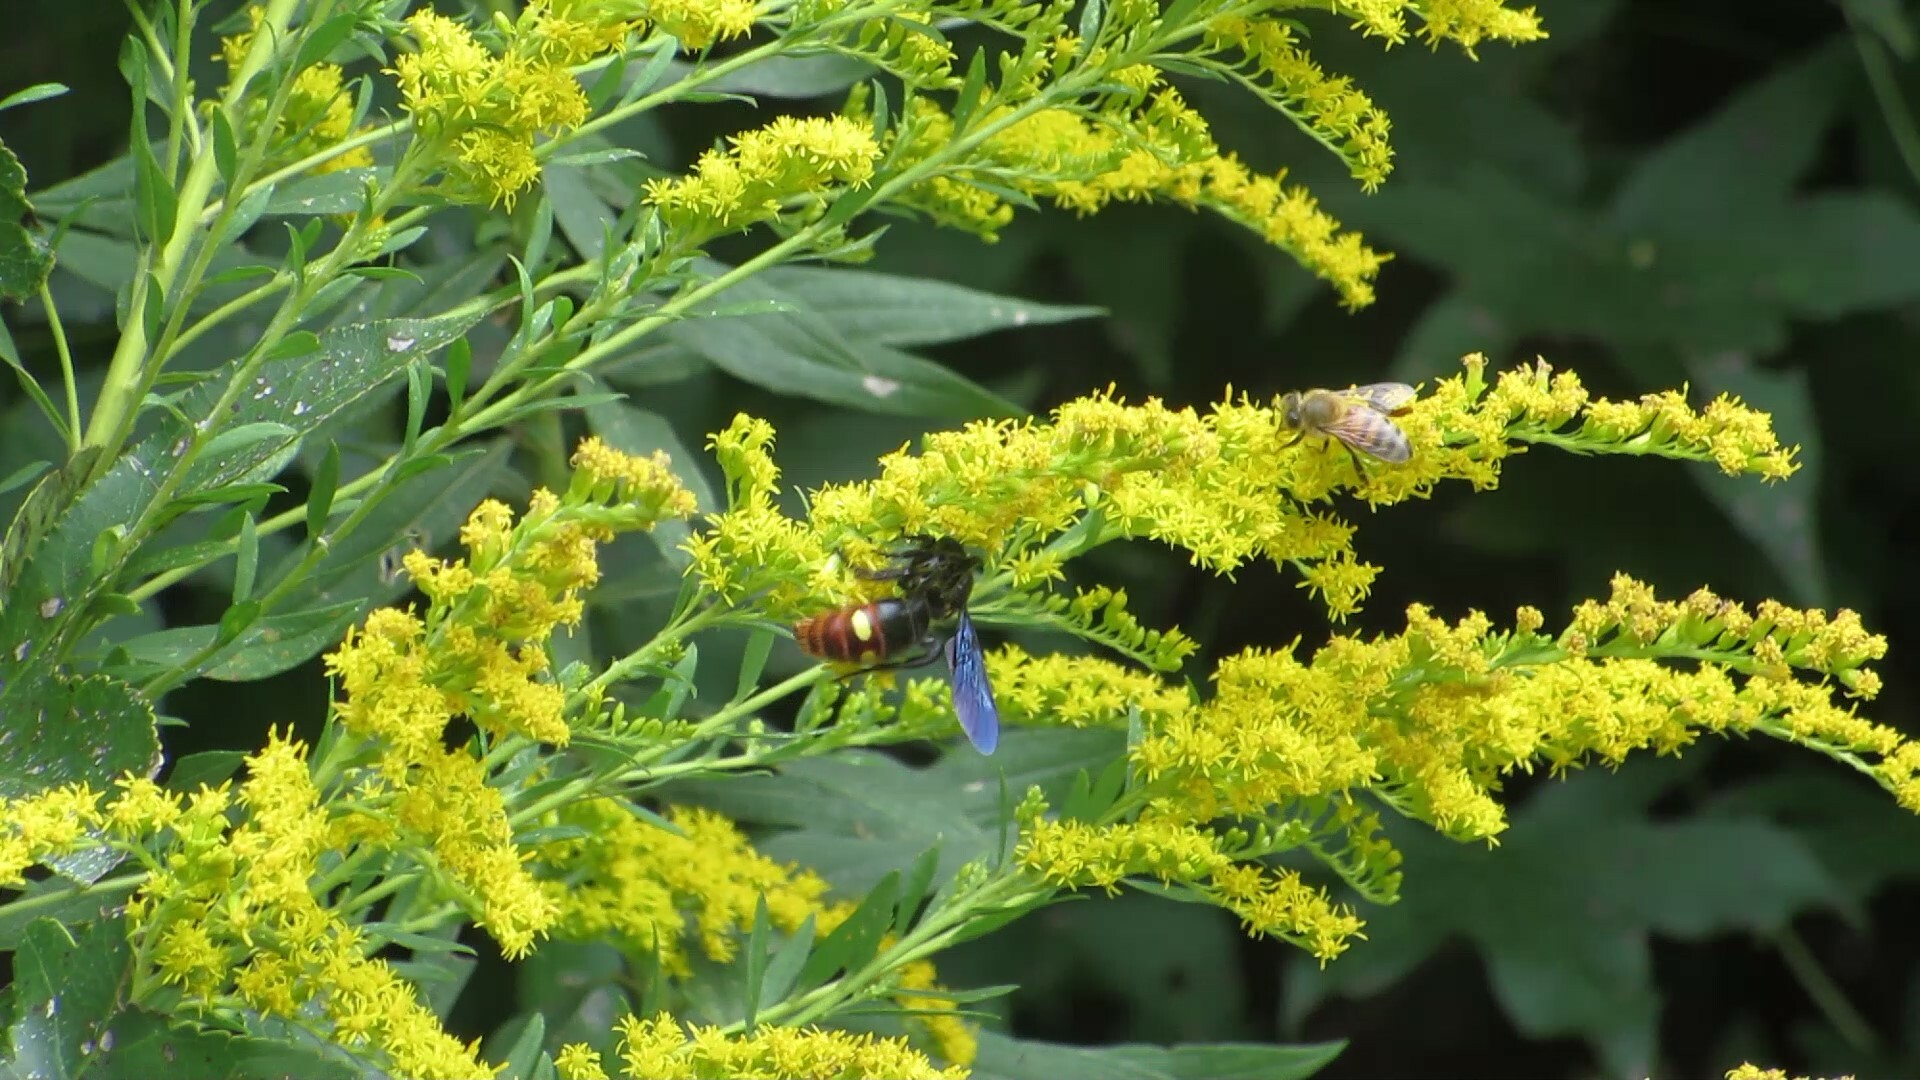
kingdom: Animalia
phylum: Arthropoda
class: Insecta
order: Hymenoptera
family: Scoliidae
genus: Scolia
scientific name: Scolia dubia
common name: Blue-winged scoliid wasp
